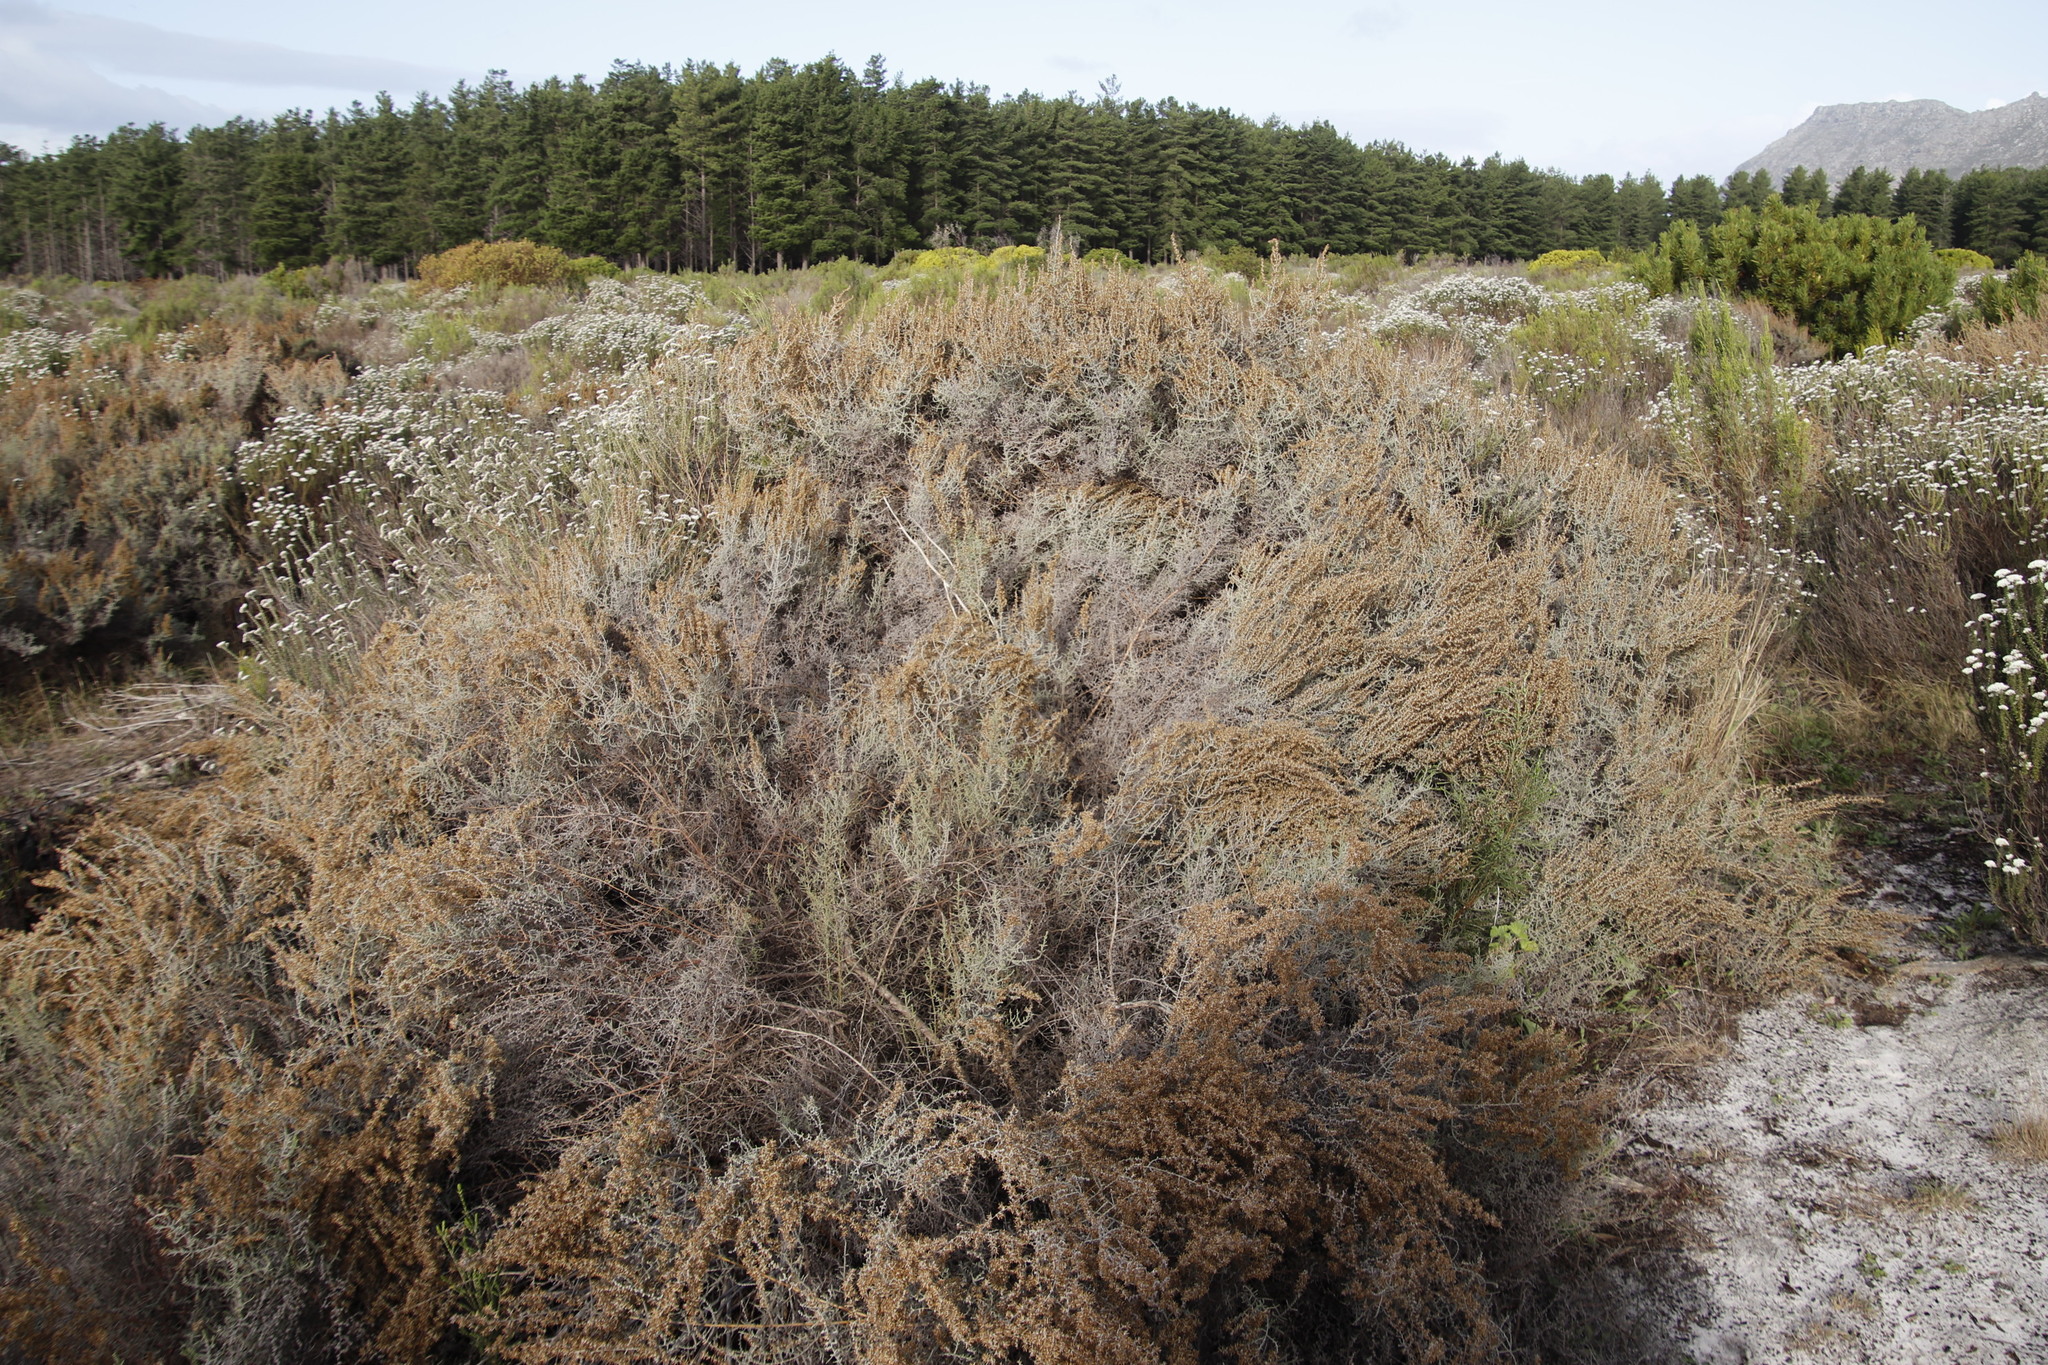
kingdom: Plantae
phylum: Tracheophyta
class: Magnoliopsida
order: Asterales
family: Asteraceae
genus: Seriphium
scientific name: Seriphium plumosum
